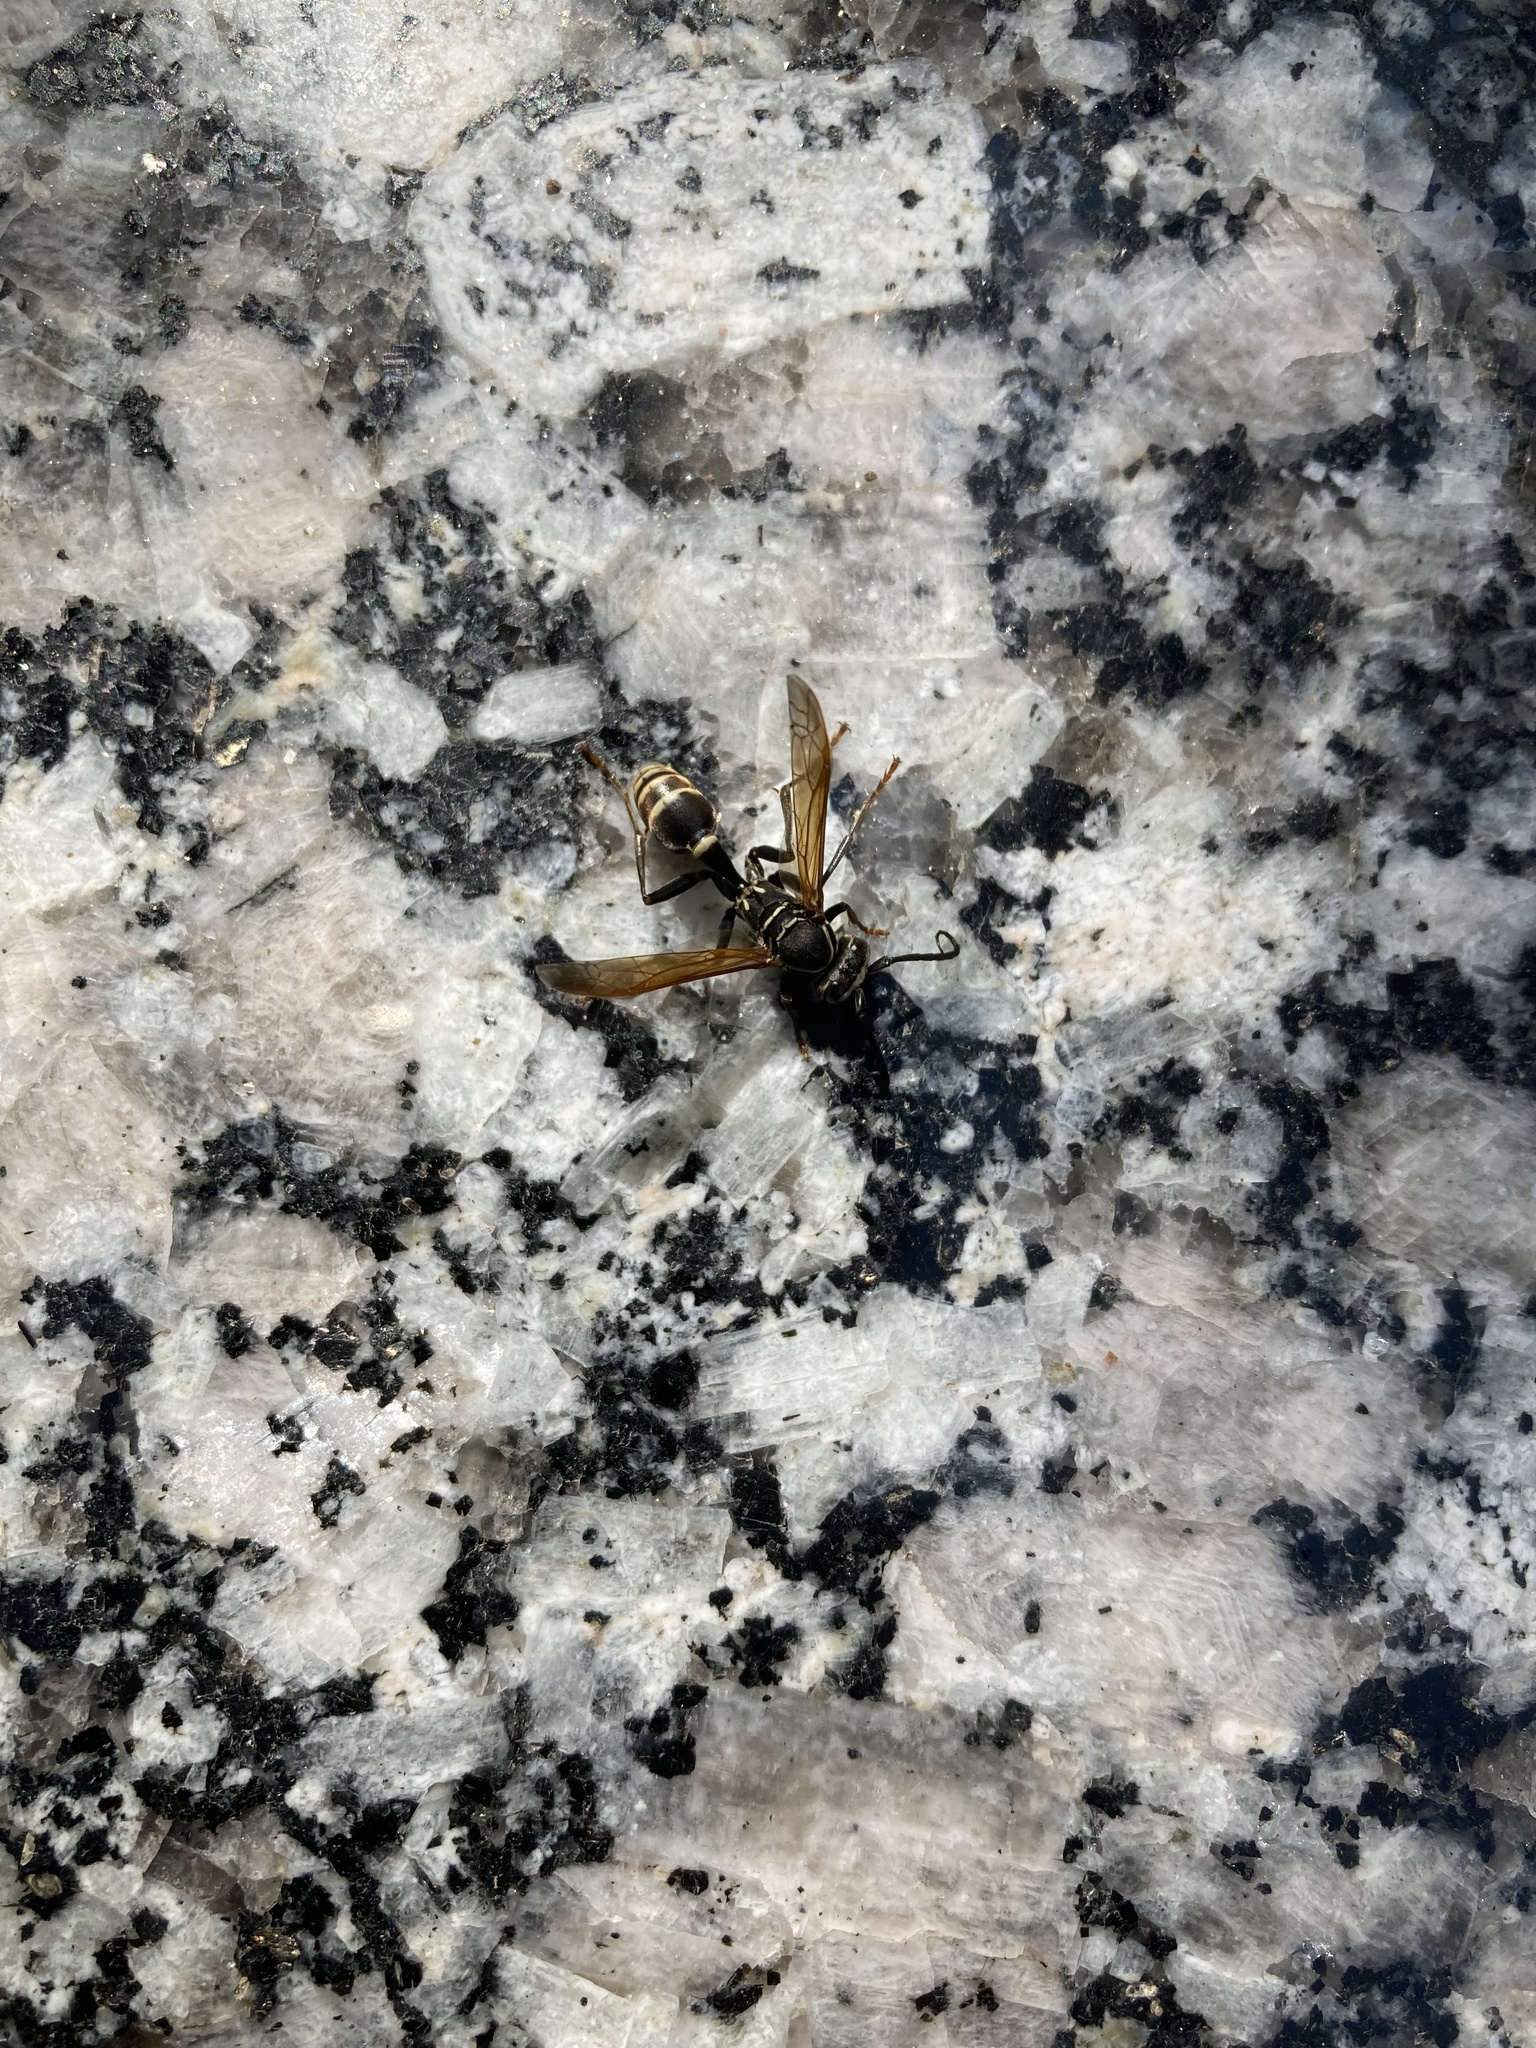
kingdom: Animalia
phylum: Arthropoda
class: Insecta
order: Hymenoptera
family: Vespidae
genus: Mischocyttarus
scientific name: Mischocyttarus flavitarsis
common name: Wasp
